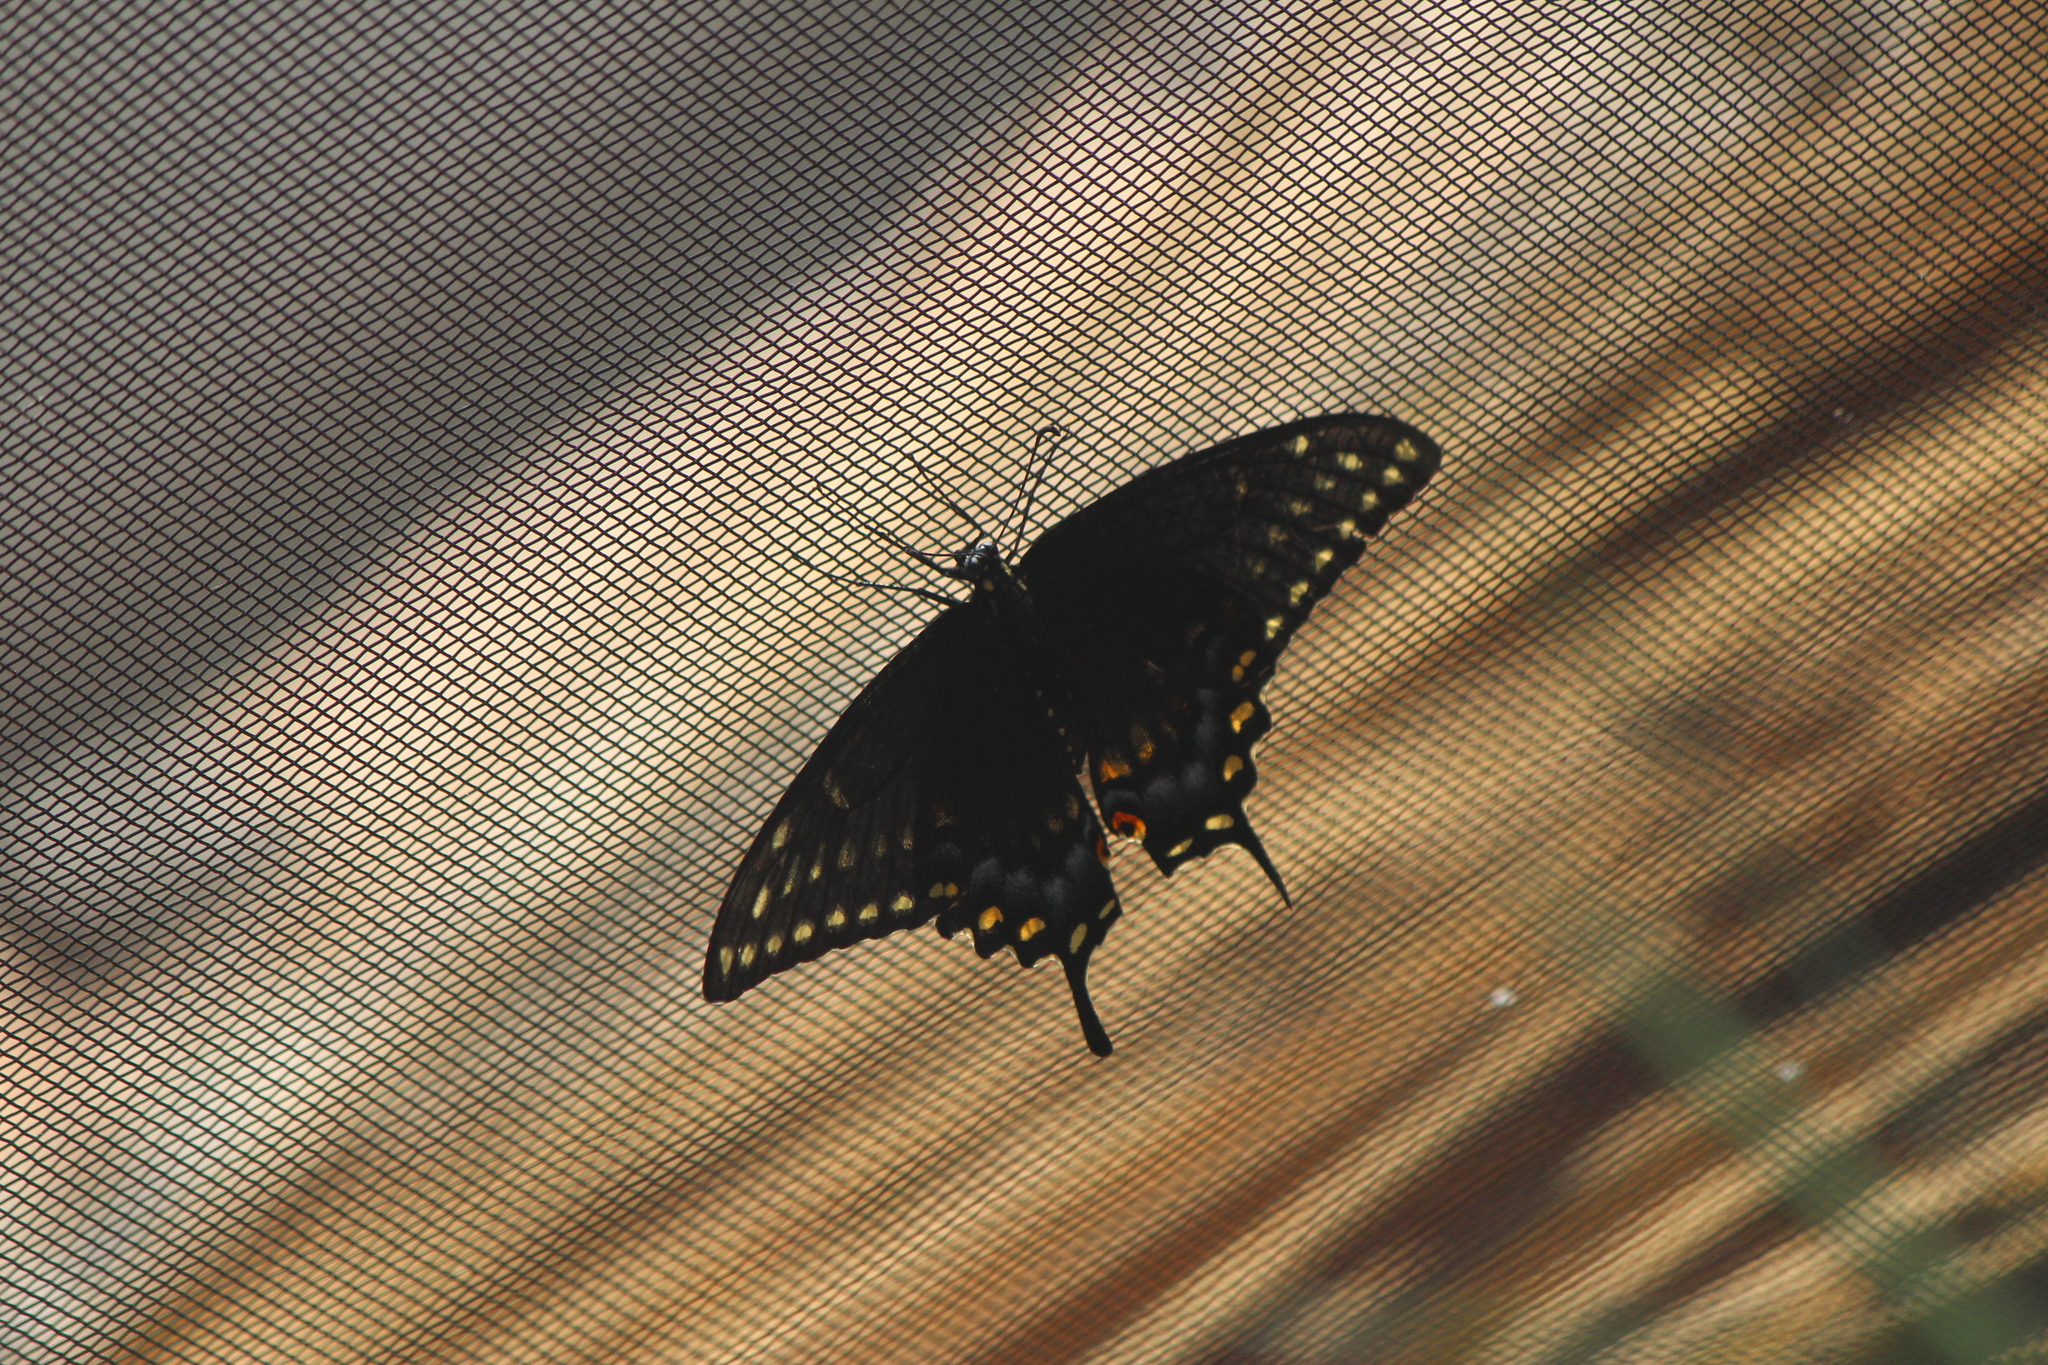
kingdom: Animalia
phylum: Arthropoda
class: Insecta
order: Lepidoptera
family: Papilionidae
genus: Papilio
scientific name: Papilio polyxenes
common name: Black swallowtail
